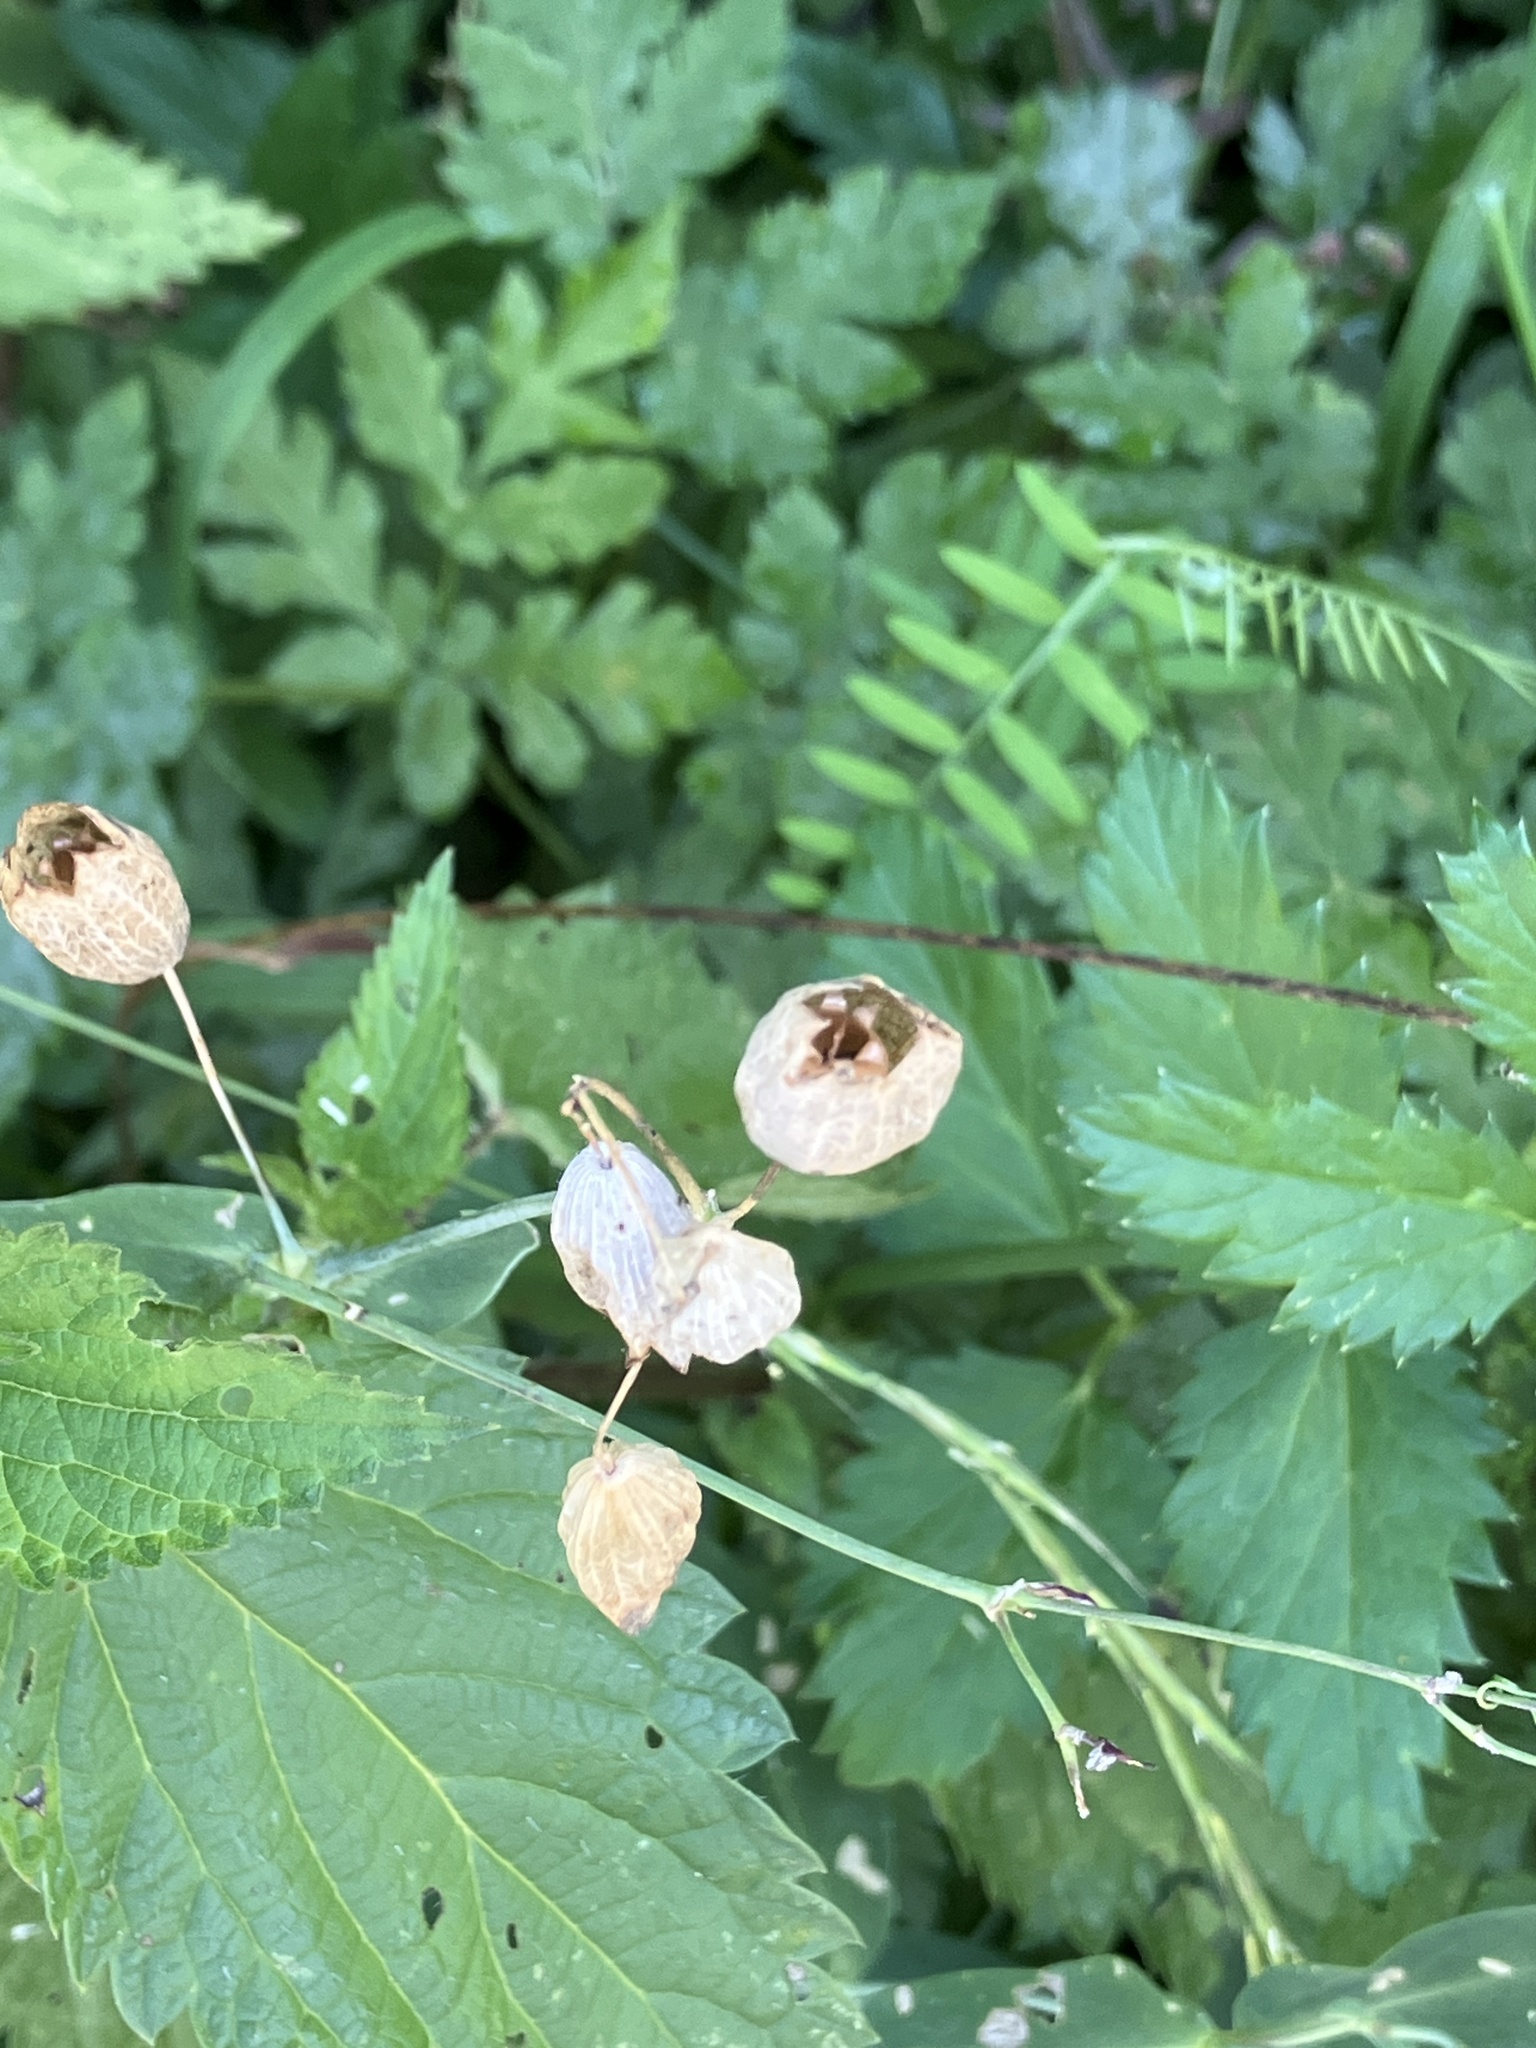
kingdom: Plantae
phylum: Tracheophyta
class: Magnoliopsida
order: Caryophyllales
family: Caryophyllaceae
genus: Silene
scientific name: Silene vulgaris
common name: Bladder campion
